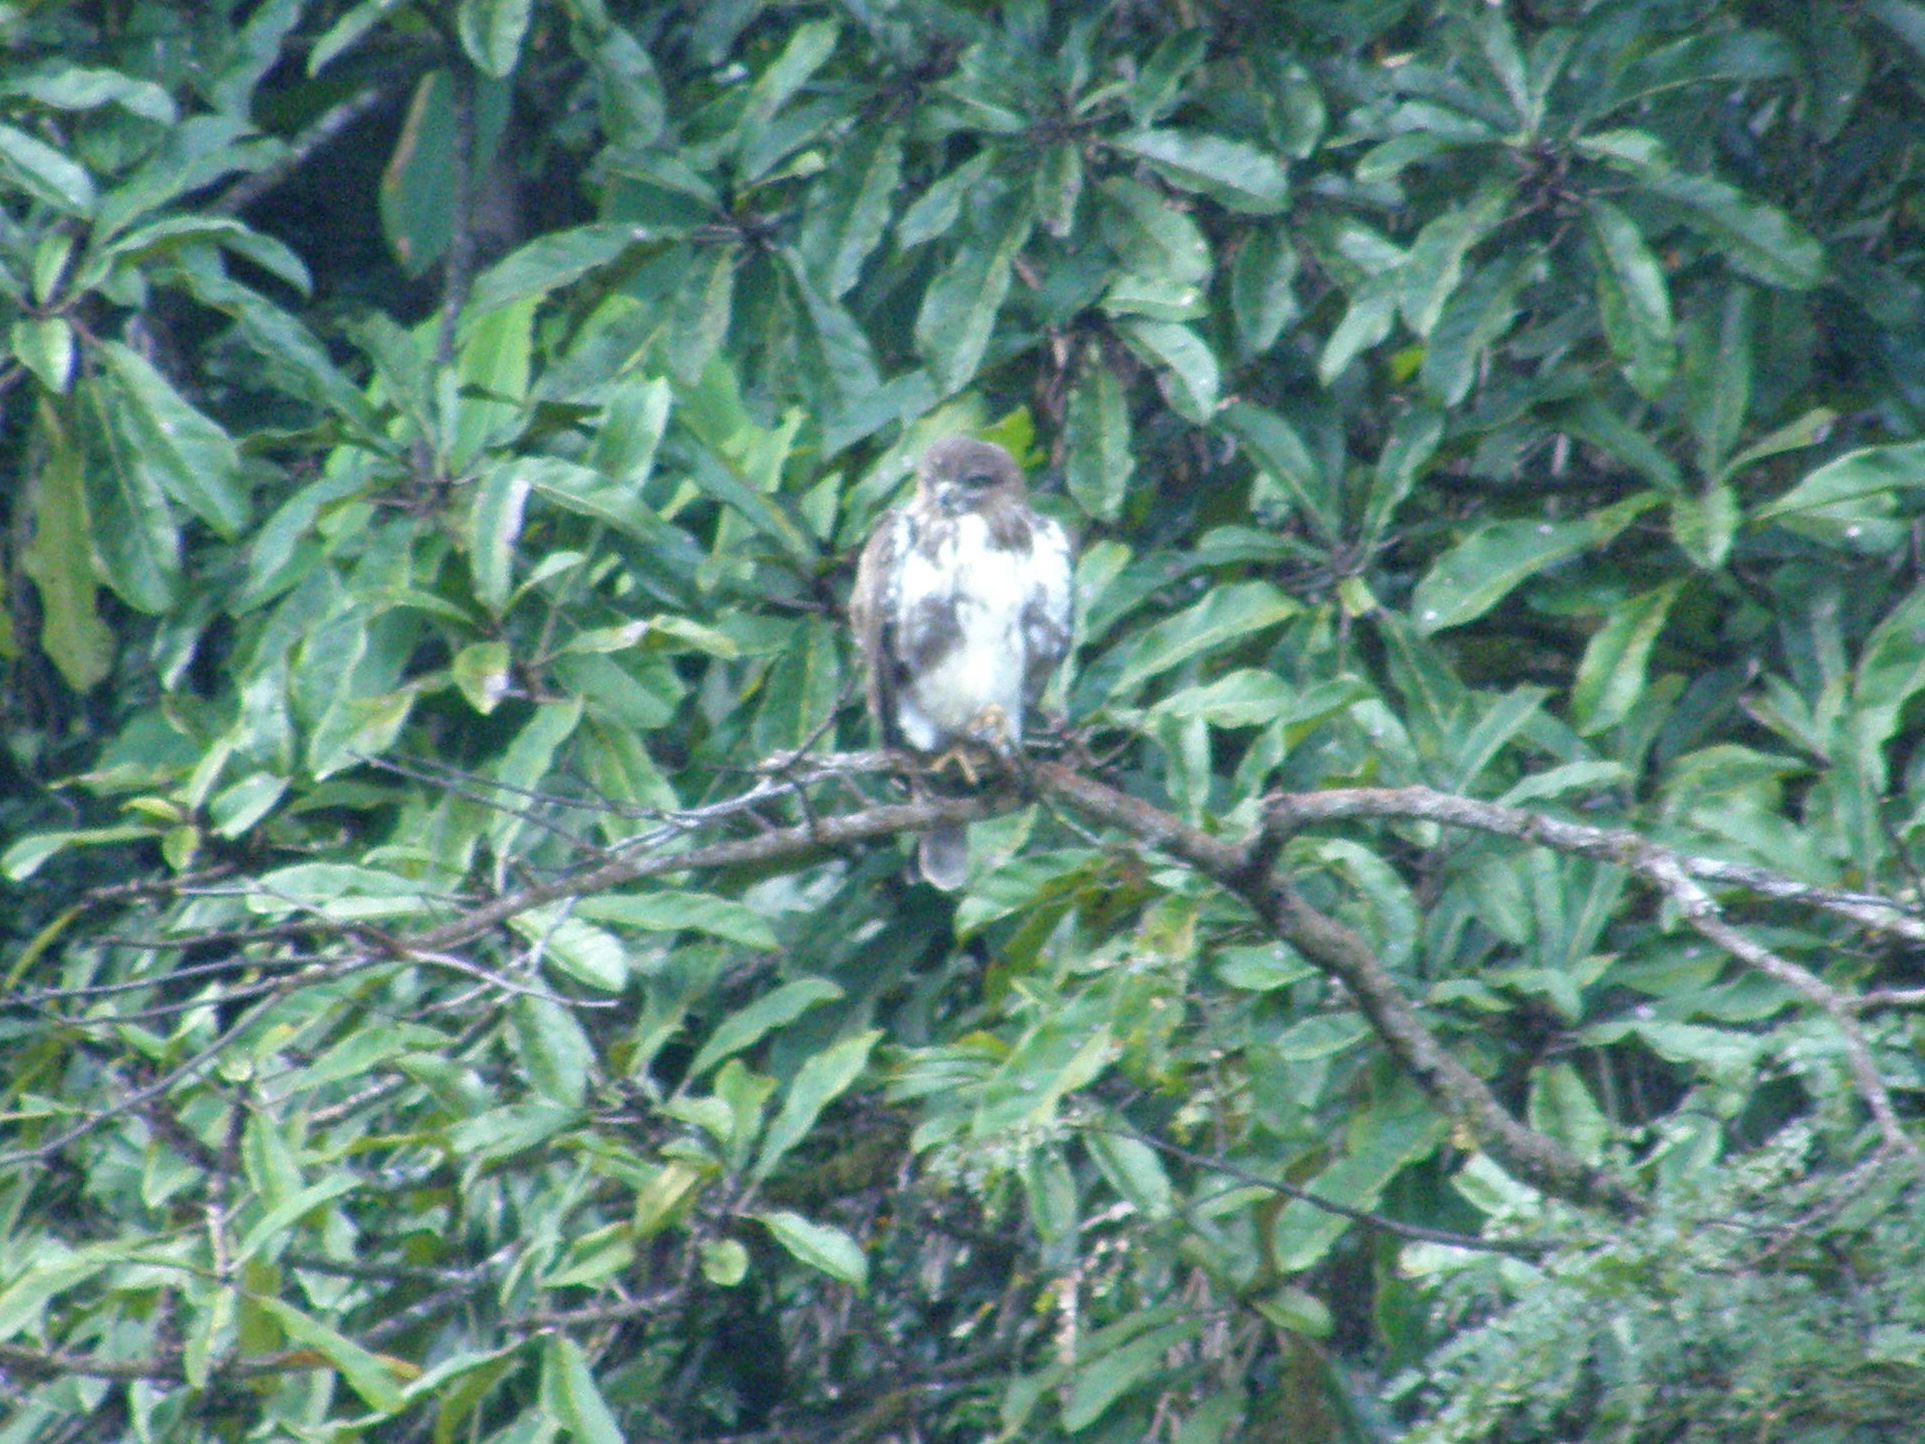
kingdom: Animalia
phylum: Chordata
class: Aves
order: Accipitriformes
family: Accipitridae
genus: Buteo
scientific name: Buteo brachypterus
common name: Madagascar buzzard
